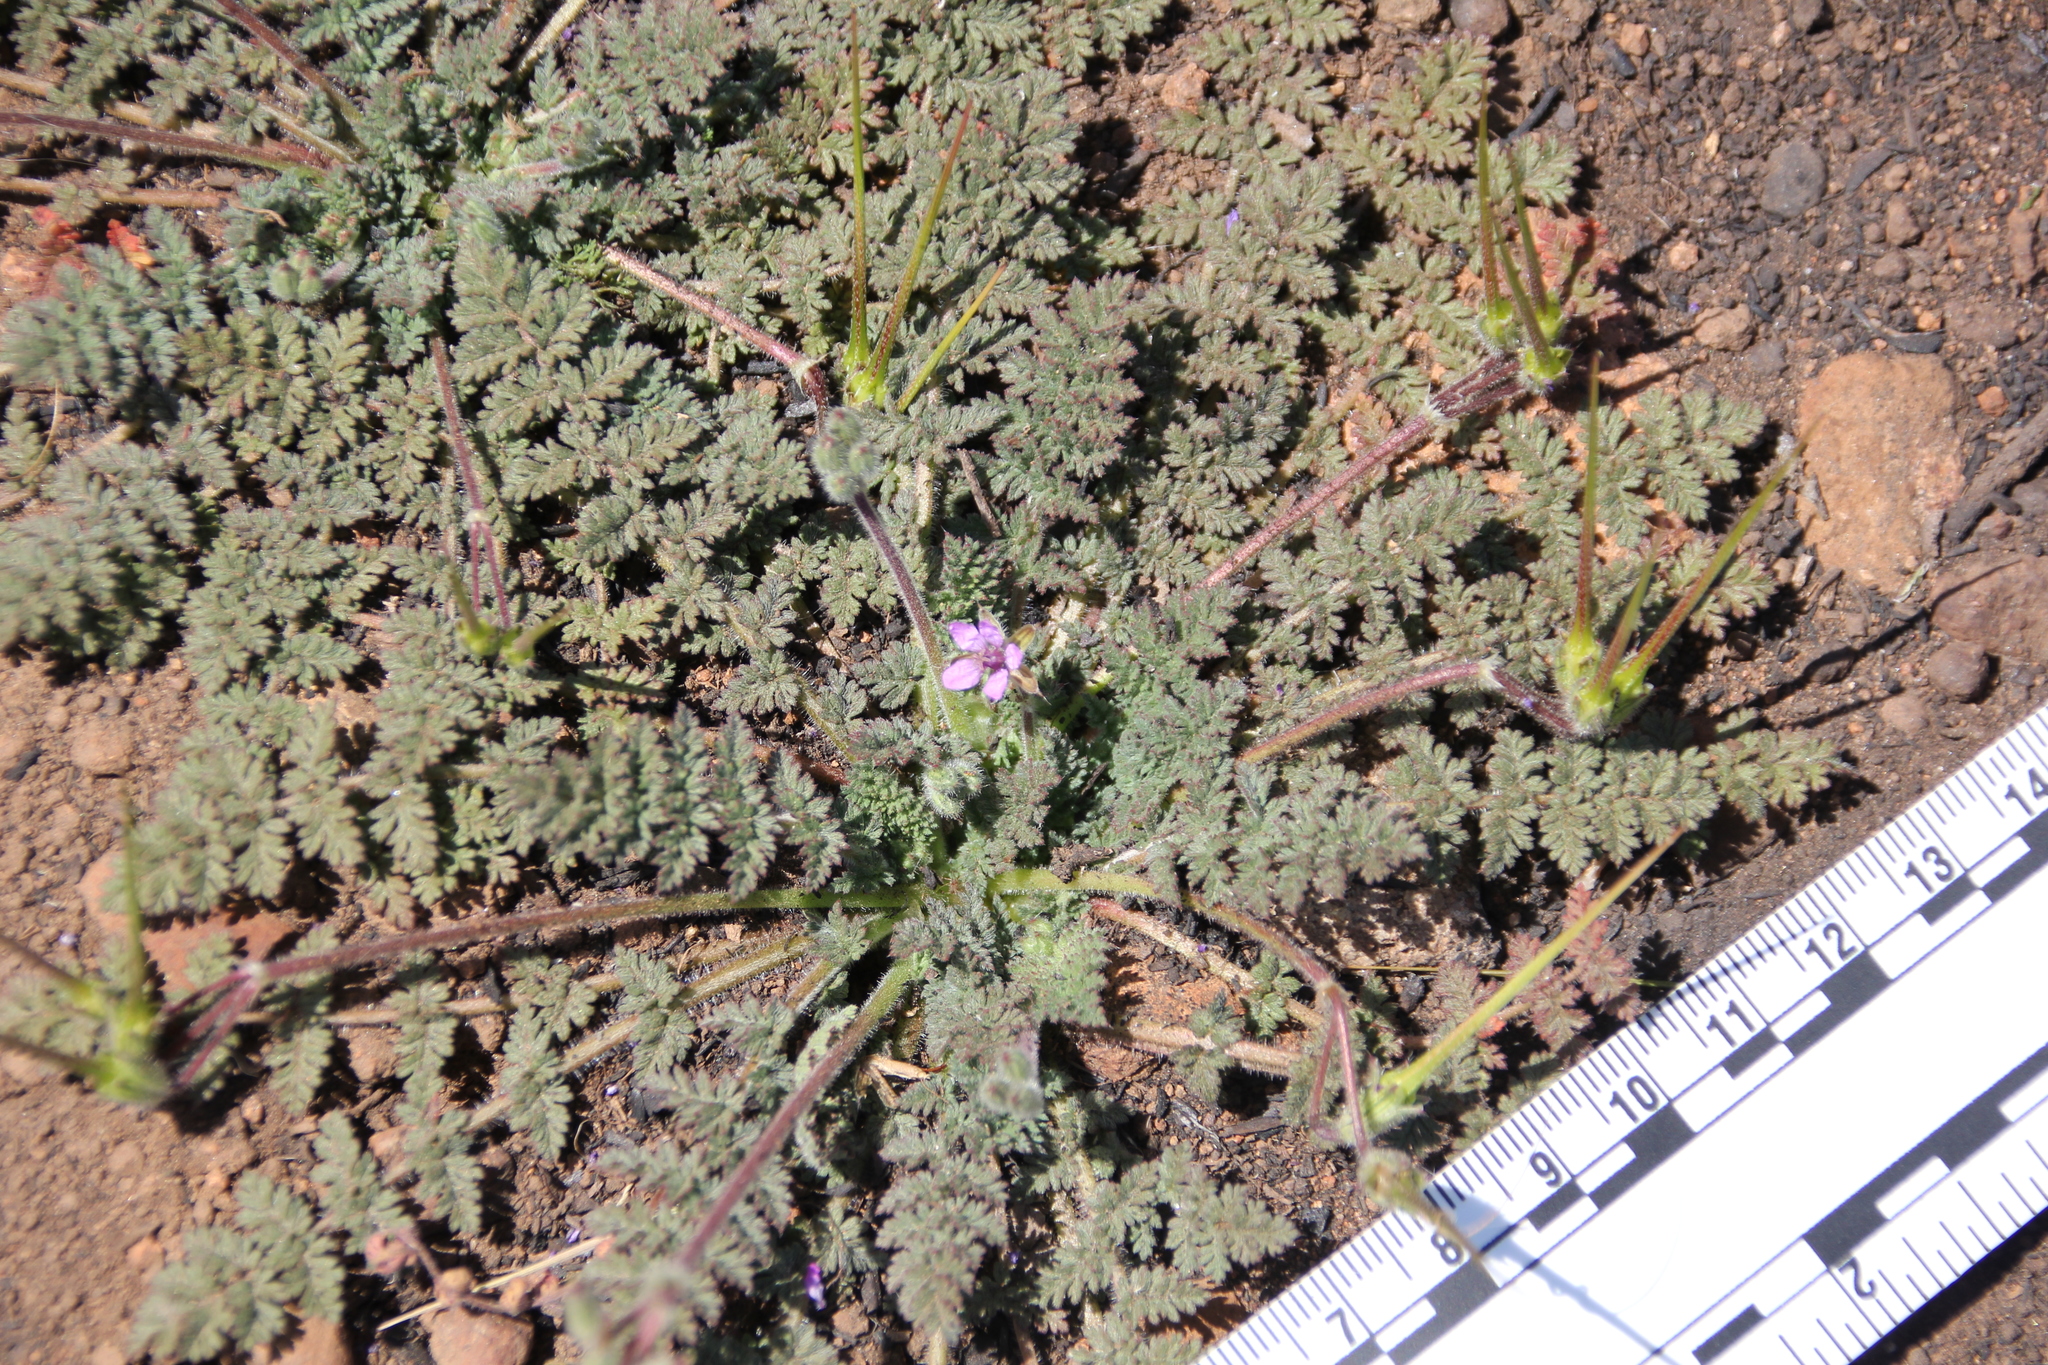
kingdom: Plantae
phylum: Tracheophyta
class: Magnoliopsida
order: Geraniales
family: Geraniaceae
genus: Erodium
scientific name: Erodium cicutarium
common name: Common stork's-bill
